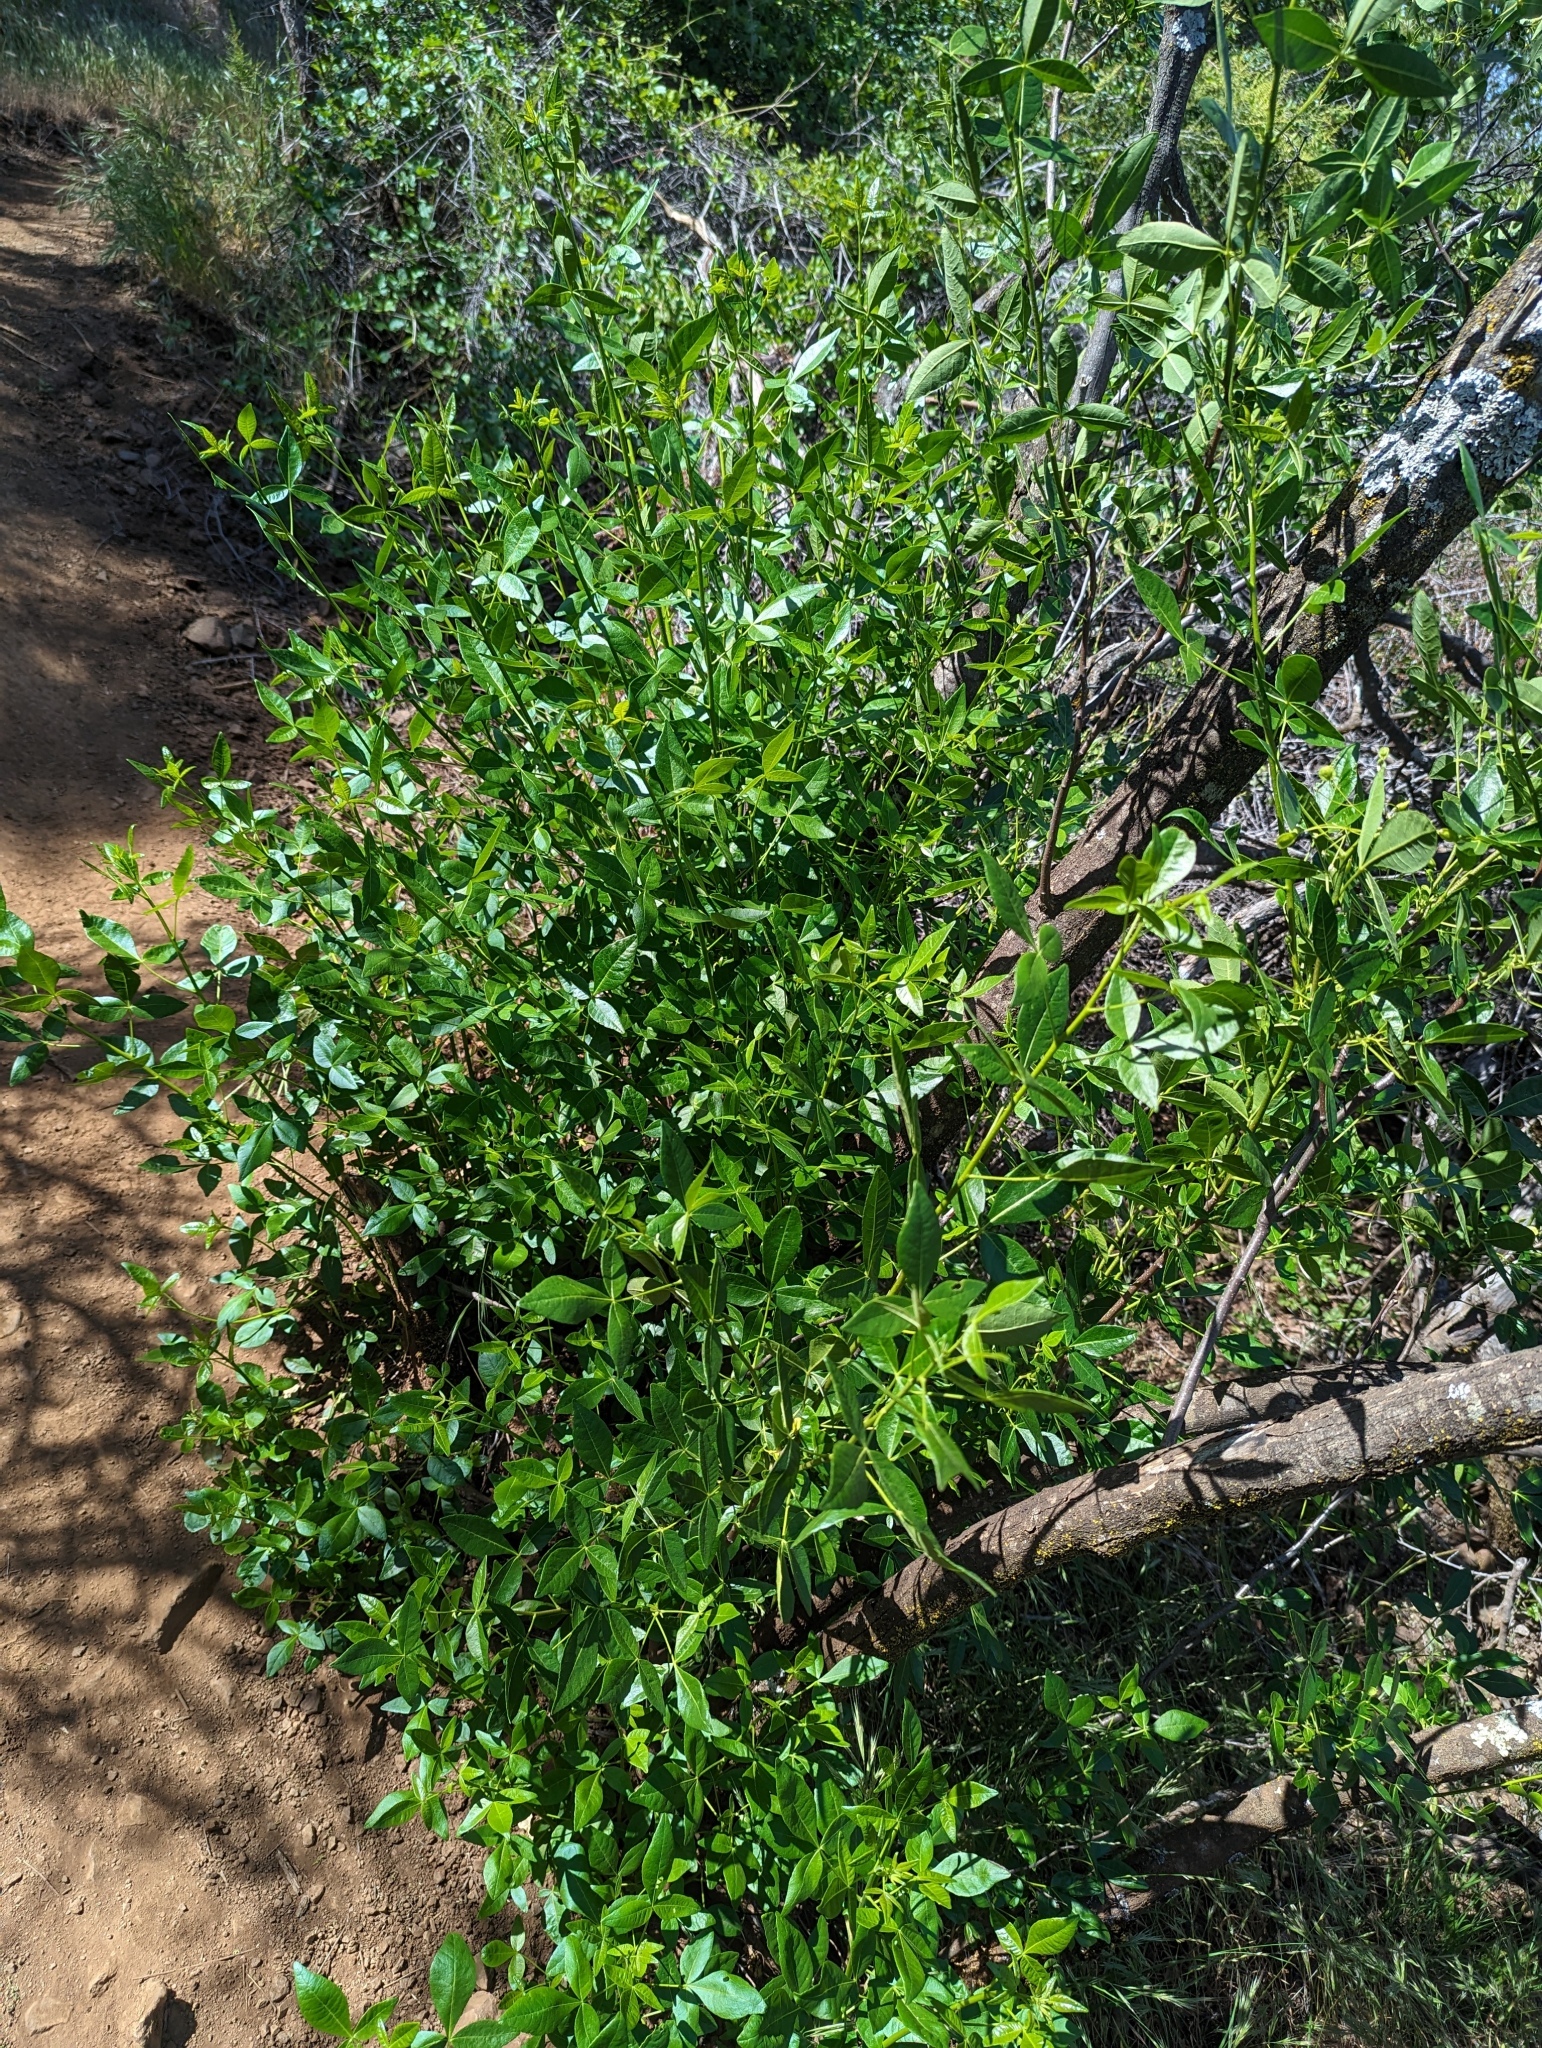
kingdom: Plantae
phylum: Tracheophyta
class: Magnoliopsida
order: Sapindales
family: Rutaceae
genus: Ptelea
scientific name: Ptelea crenulata
